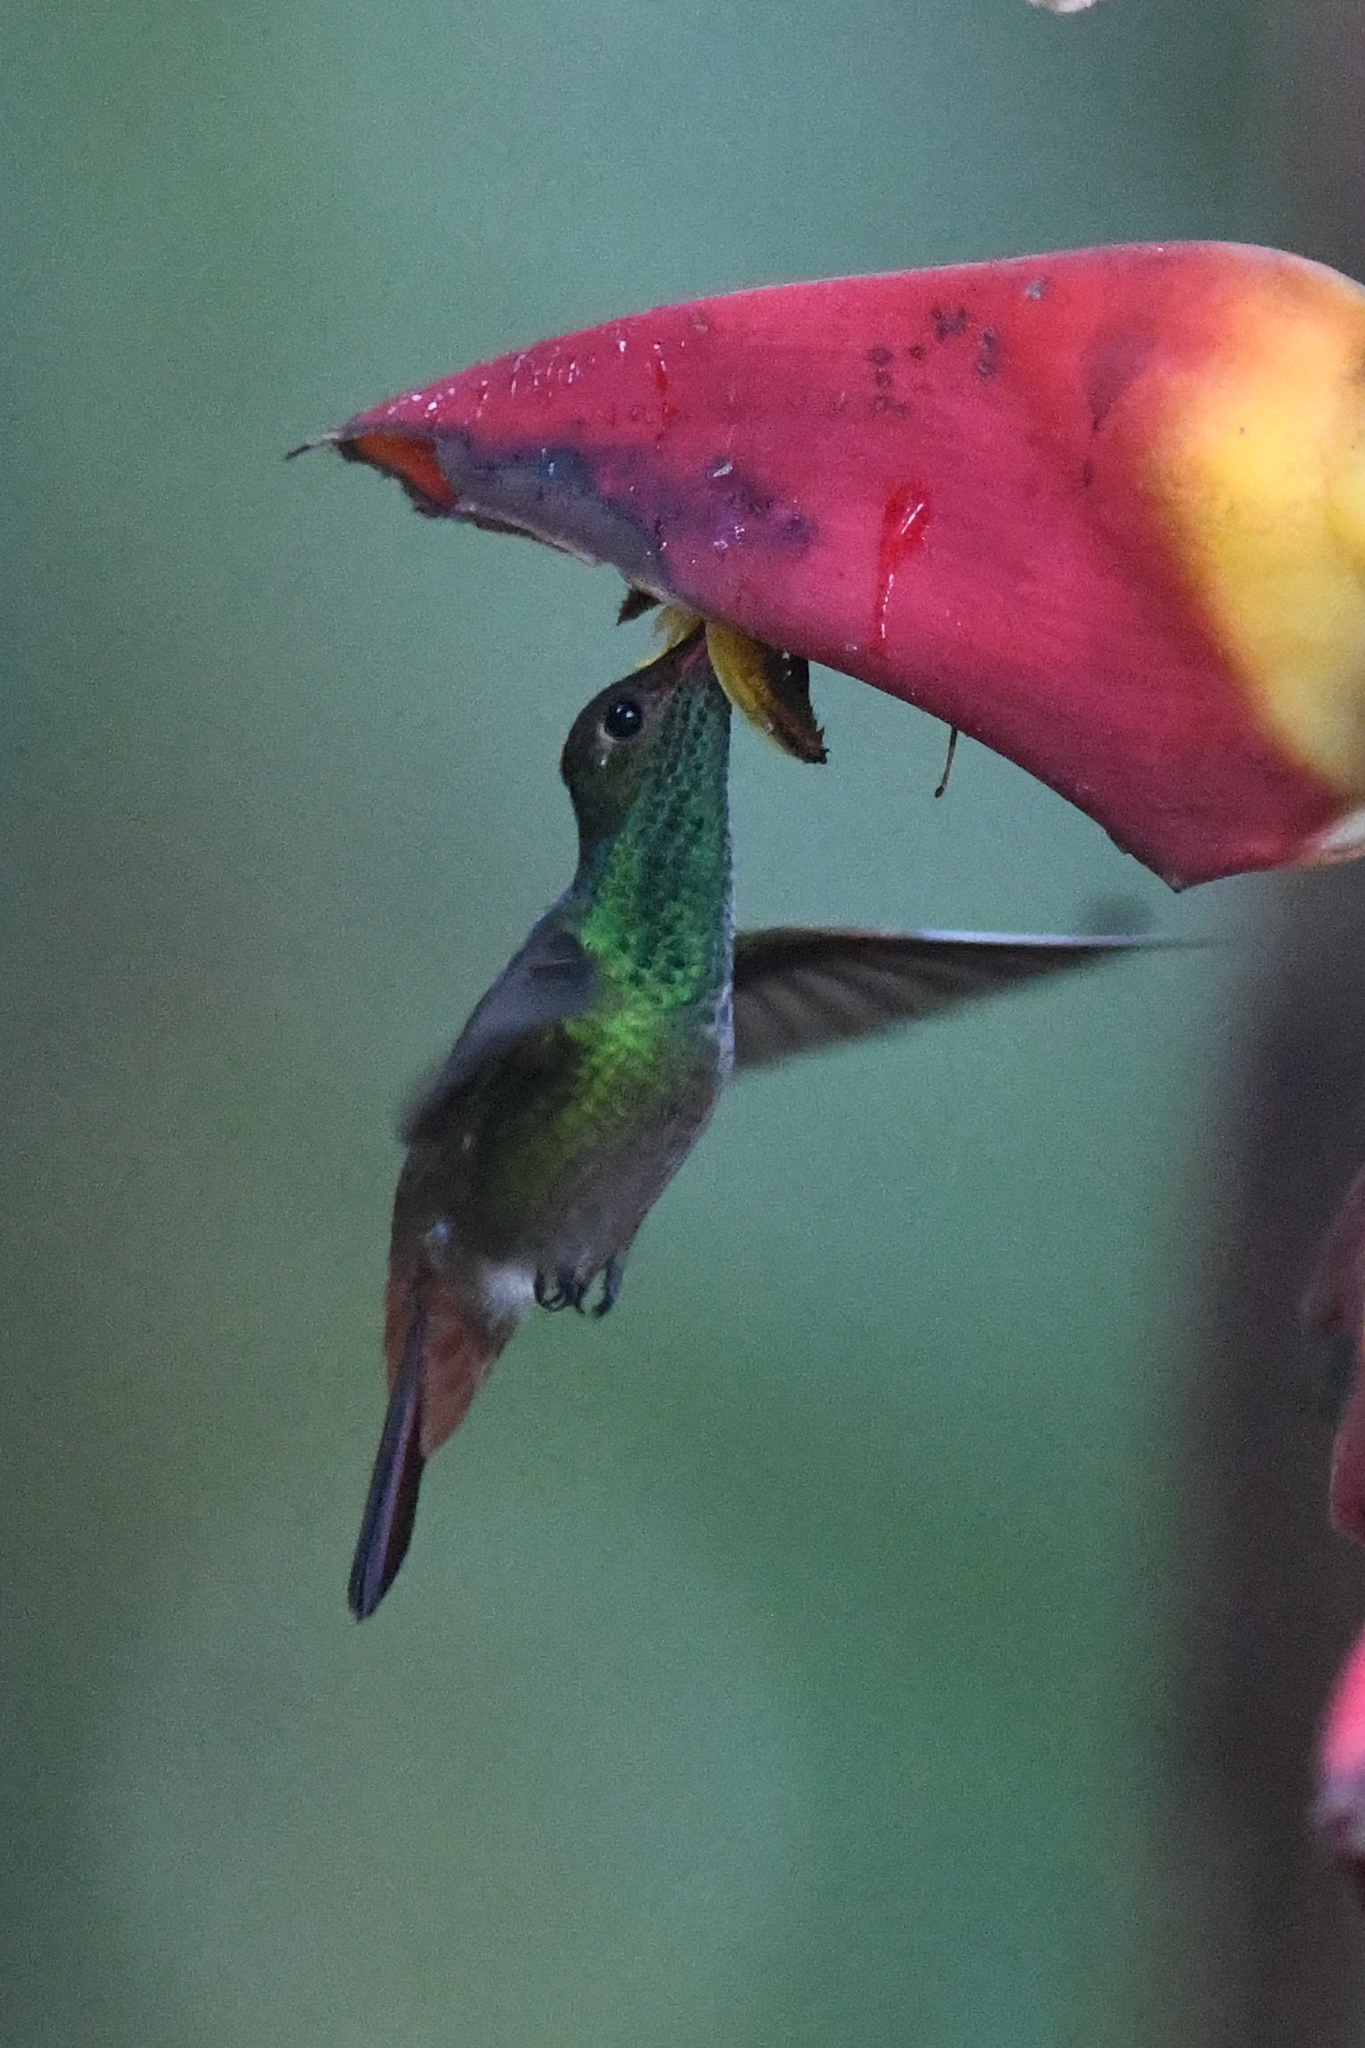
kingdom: Animalia
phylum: Chordata
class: Aves
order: Apodiformes
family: Trochilidae
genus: Amazilia
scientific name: Amazilia tzacatl
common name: Rufous-tailed hummingbird
